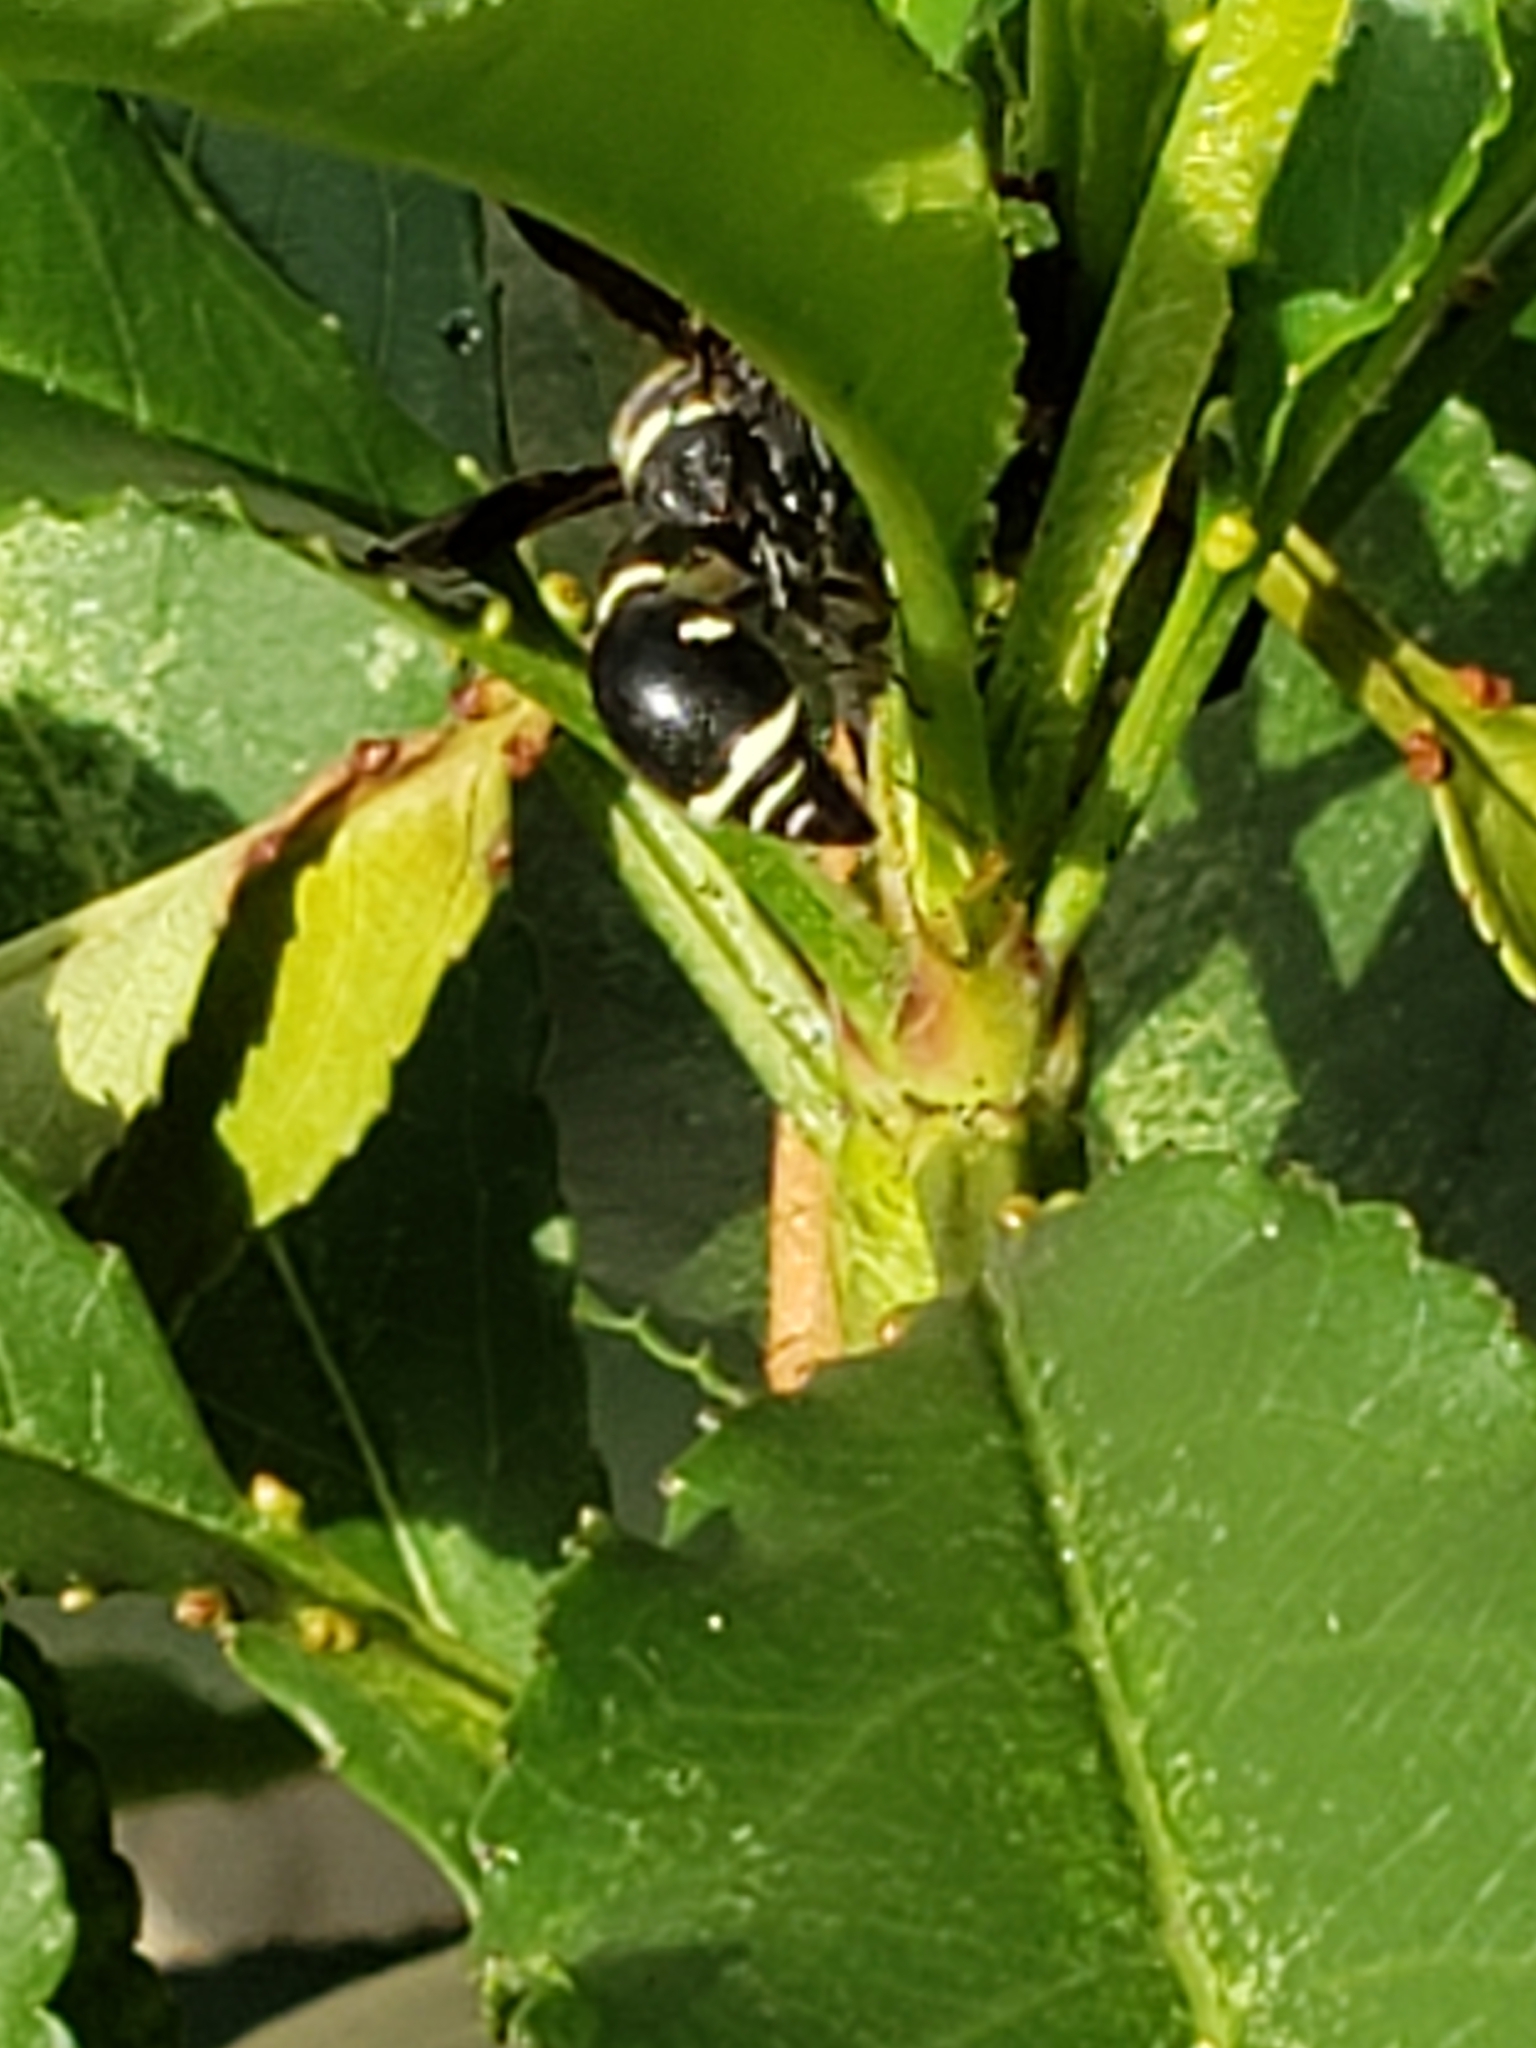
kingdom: Animalia
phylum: Arthropoda
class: Insecta
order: Hymenoptera
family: Vespidae
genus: Eumenes
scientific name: Eumenes fraternus
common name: Fraternal potter wasp
